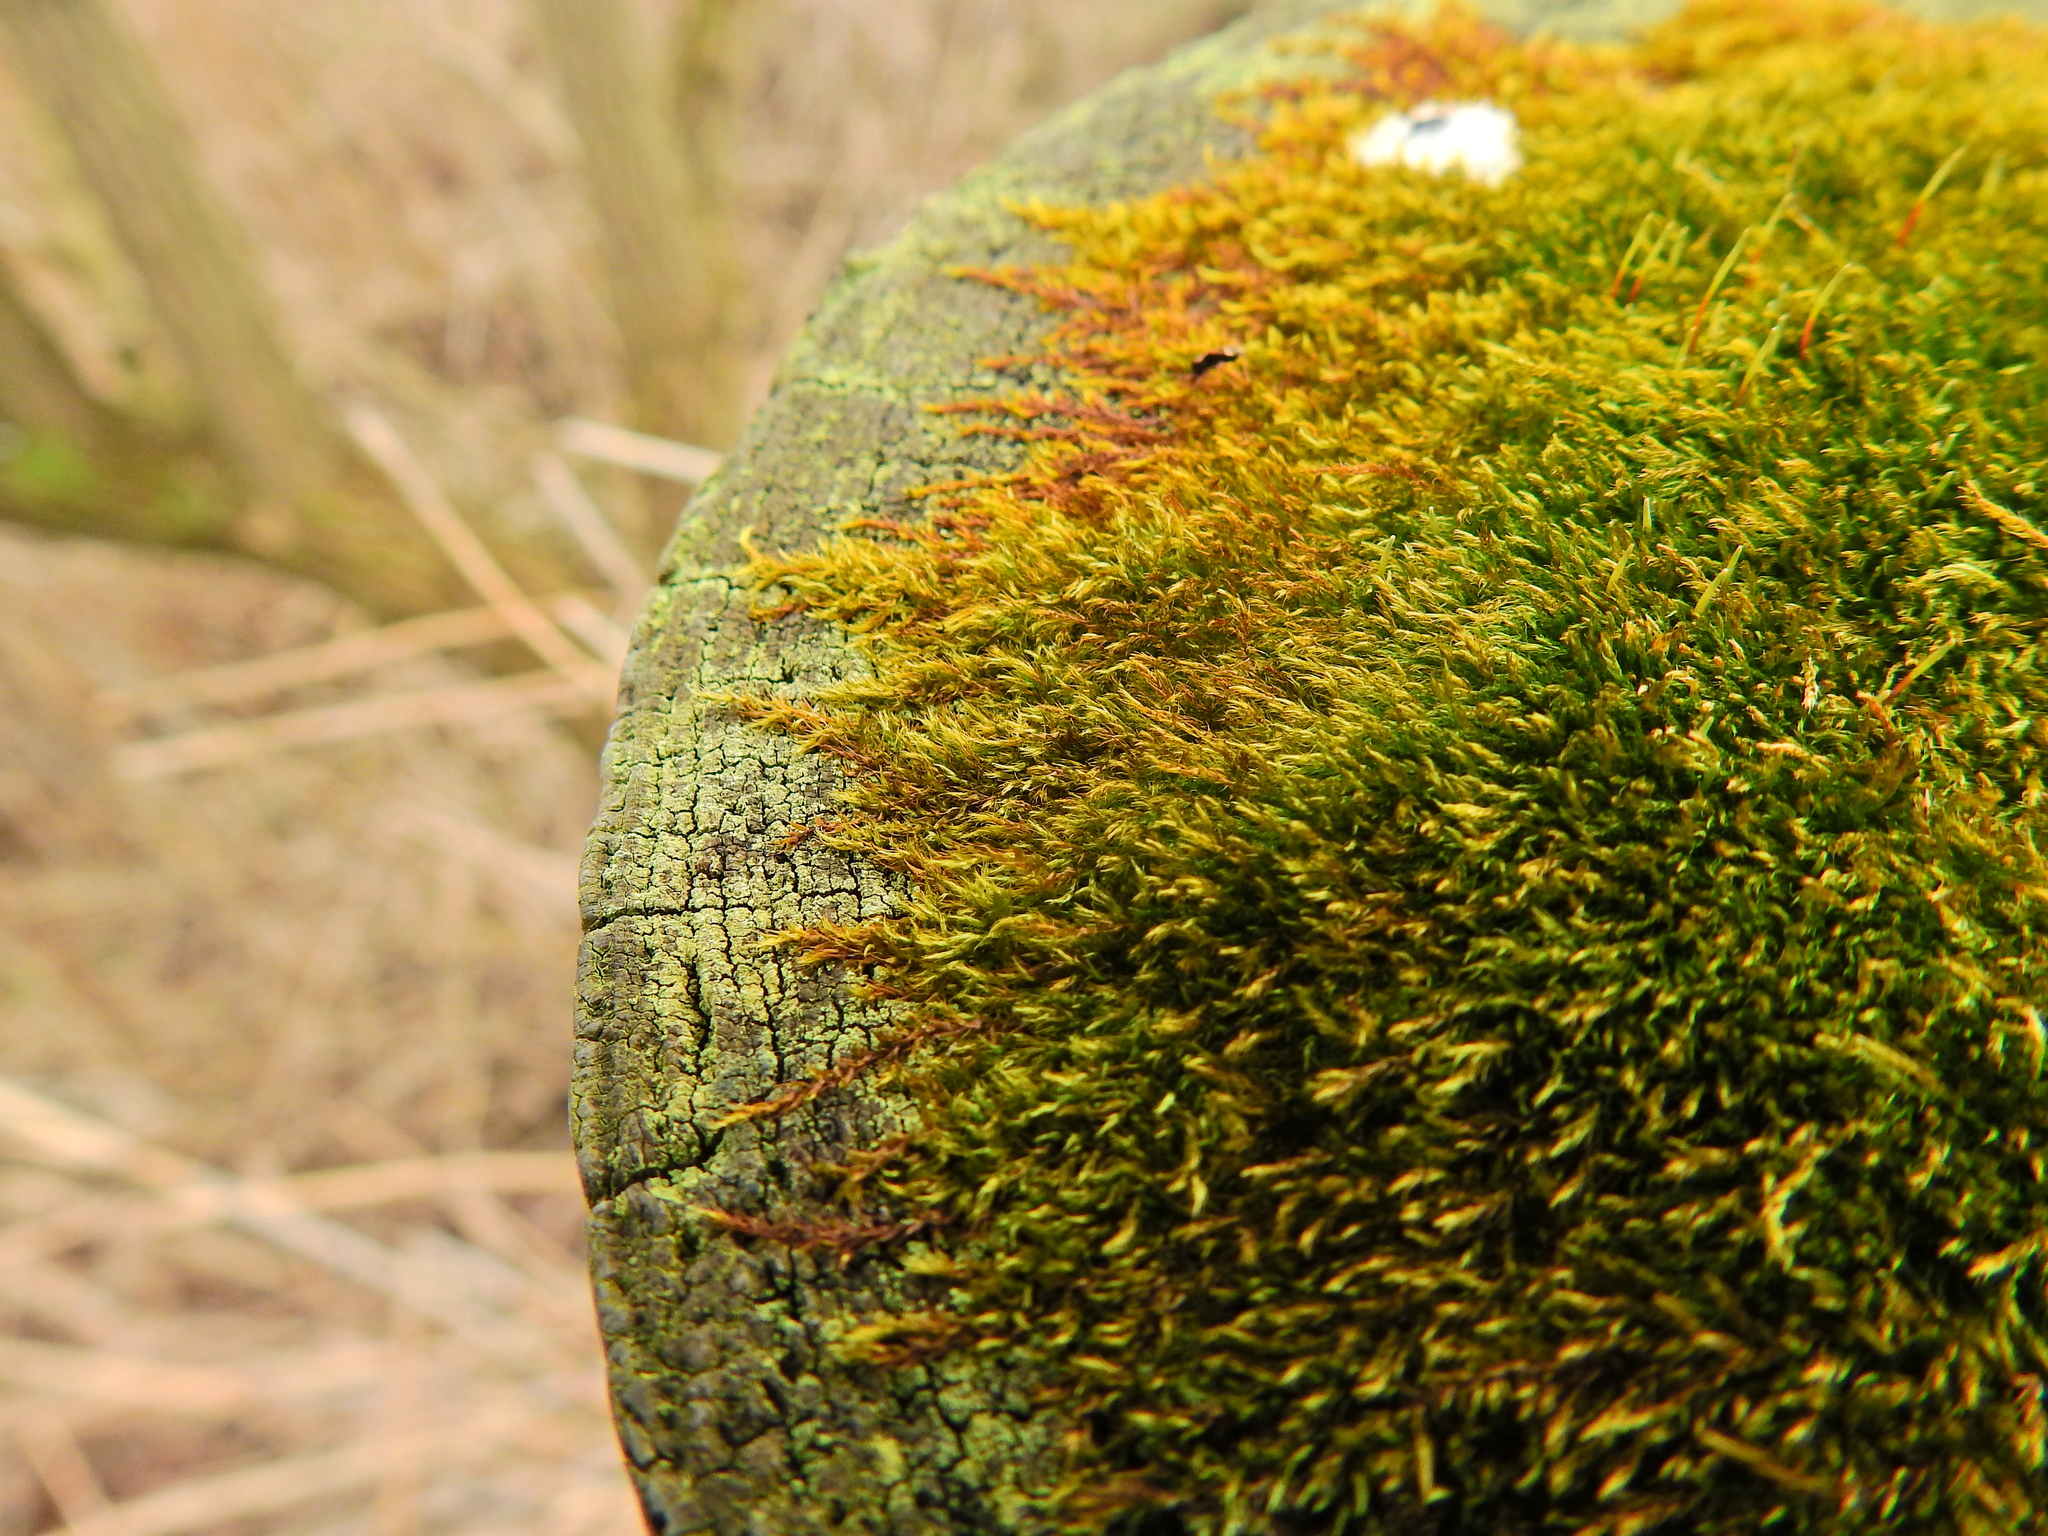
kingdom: Plantae
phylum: Bryophyta
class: Bryopsida
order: Hypnales
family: Amblystegiaceae
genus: Amblystegium
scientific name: Amblystegium serpens
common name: Jurkatzka's feather moss
